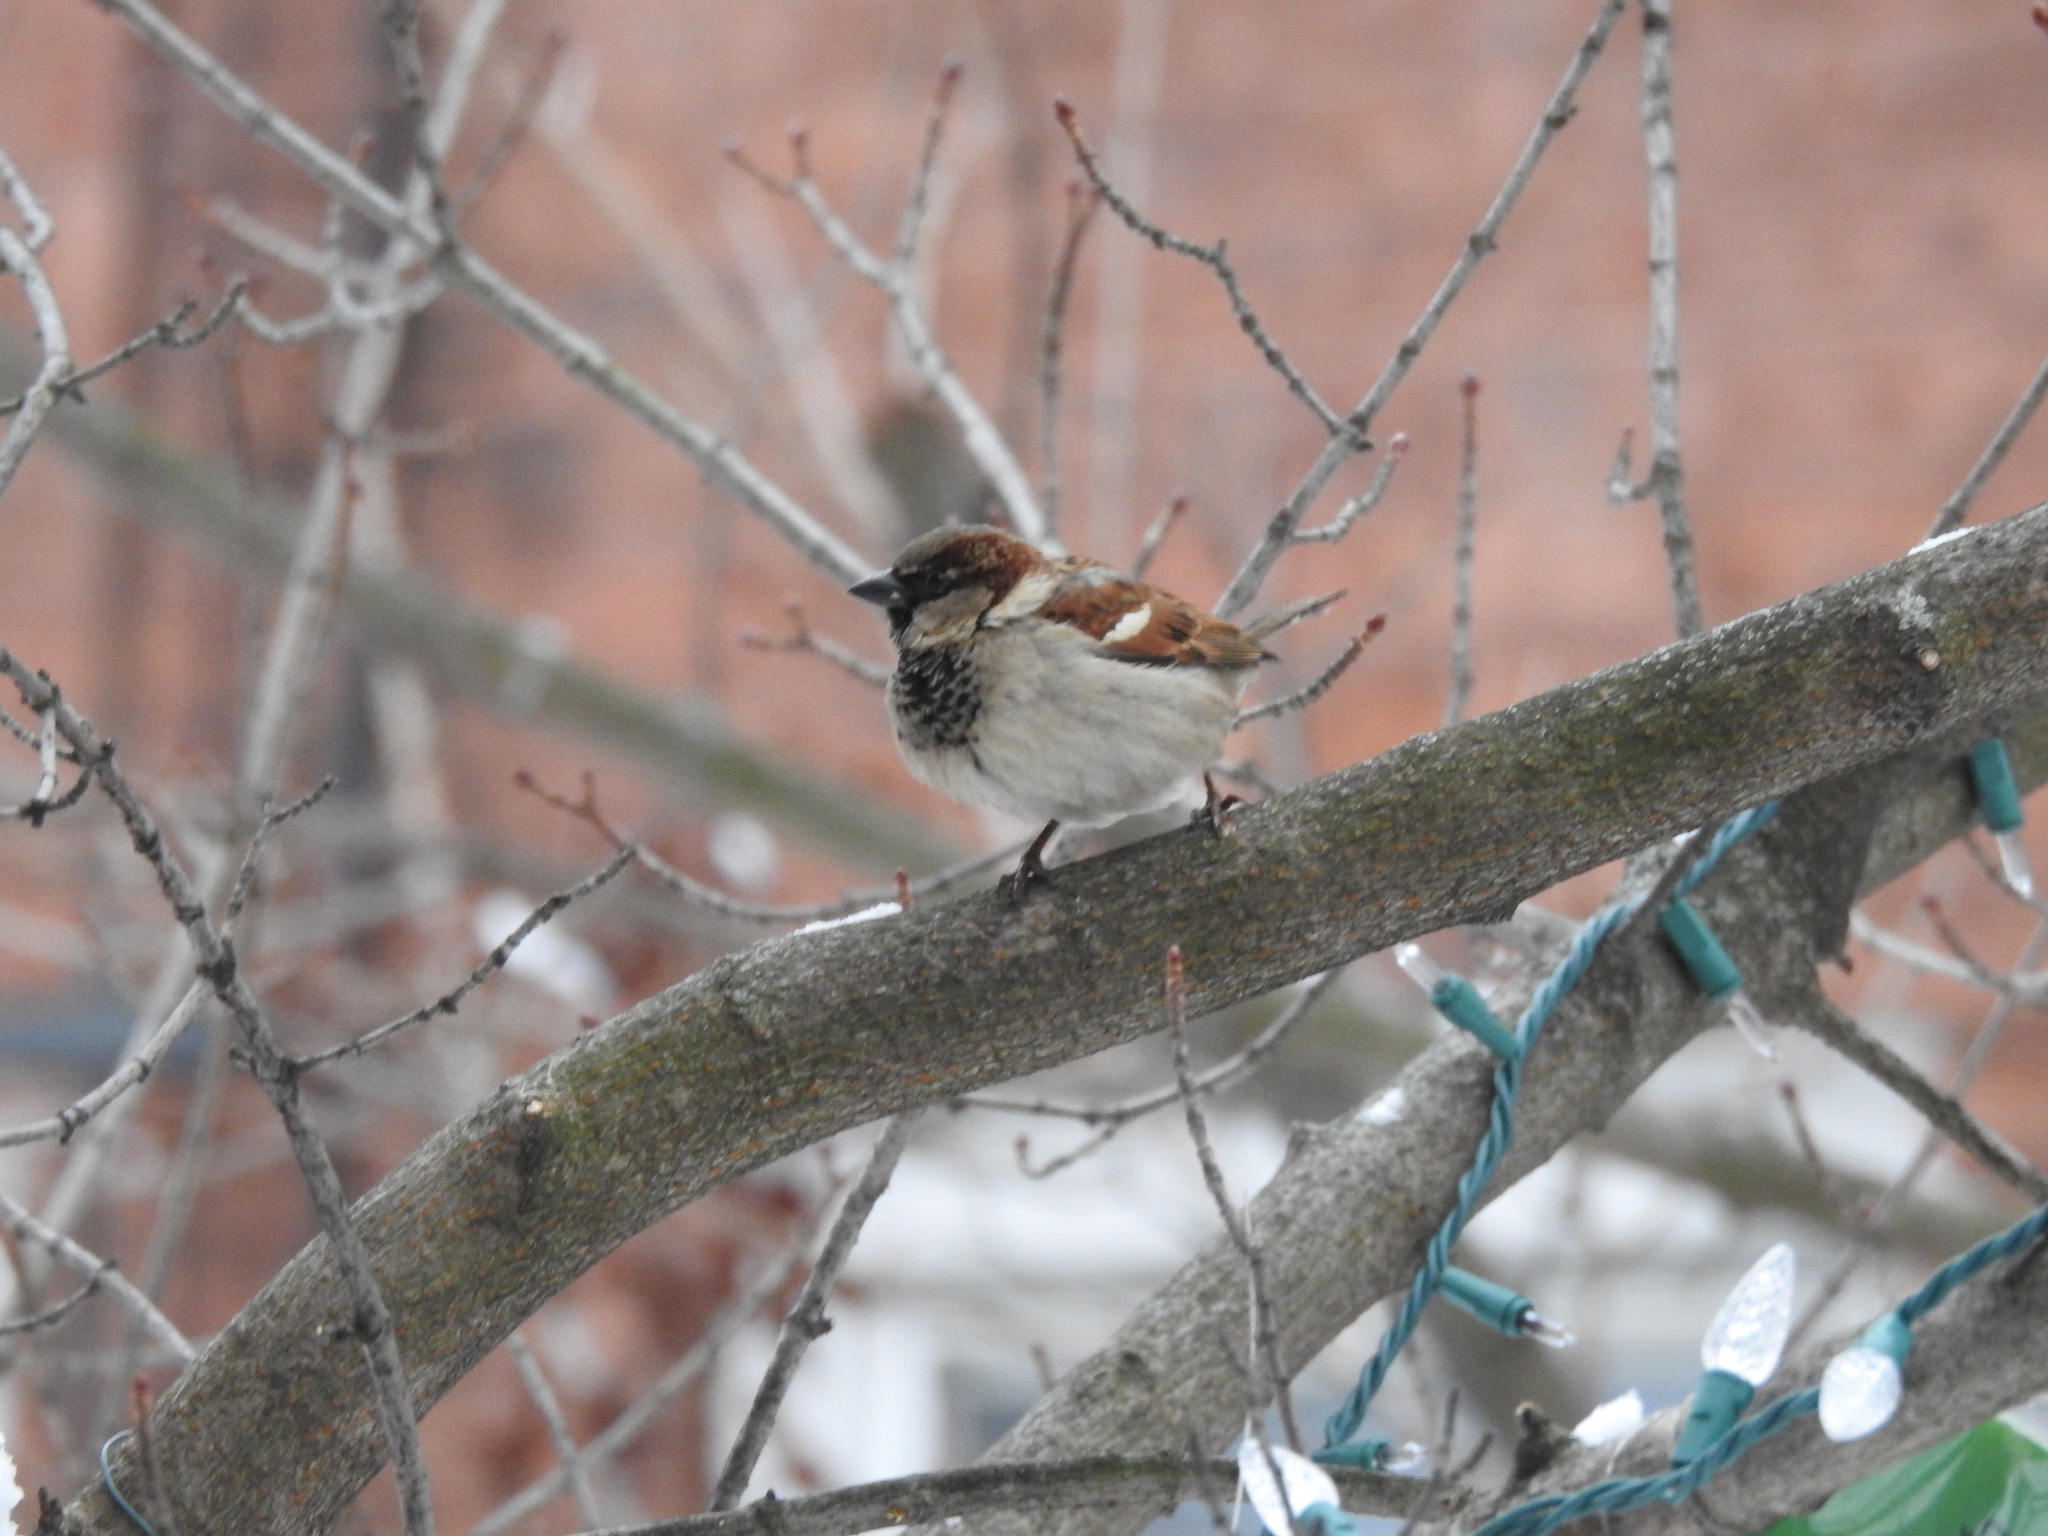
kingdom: Animalia
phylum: Chordata
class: Aves
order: Passeriformes
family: Passeridae
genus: Passer
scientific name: Passer domesticus
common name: House sparrow
